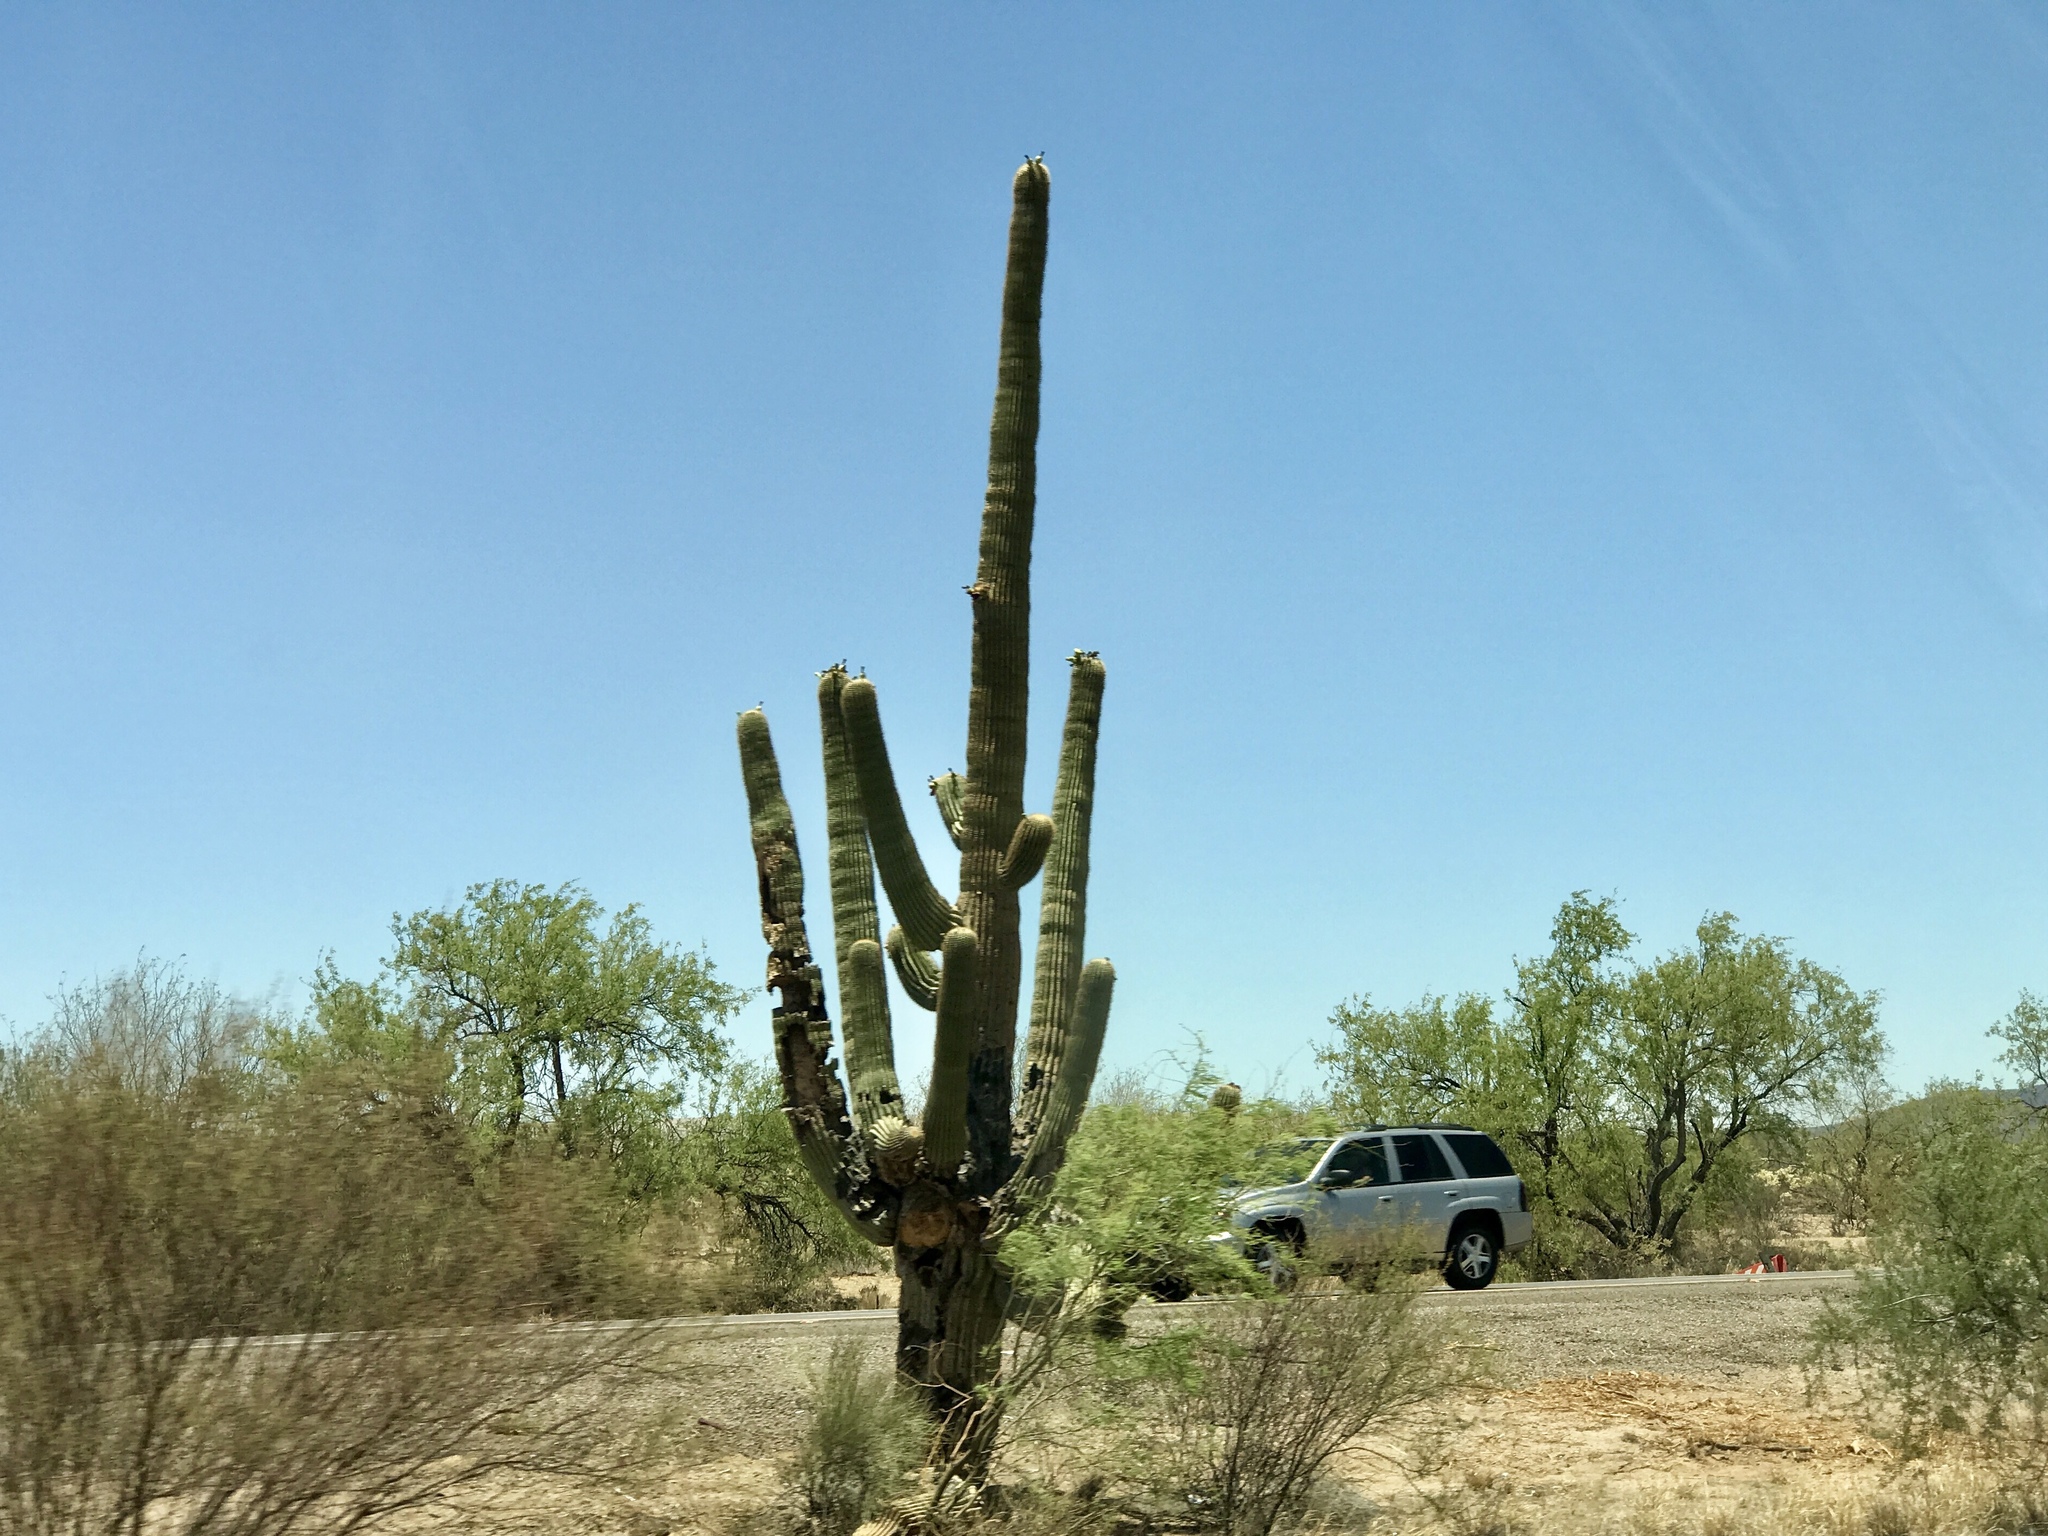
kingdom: Plantae
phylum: Tracheophyta
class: Magnoliopsida
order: Caryophyllales
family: Cactaceae
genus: Carnegiea
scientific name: Carnegiea gigantea
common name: Saguaro
